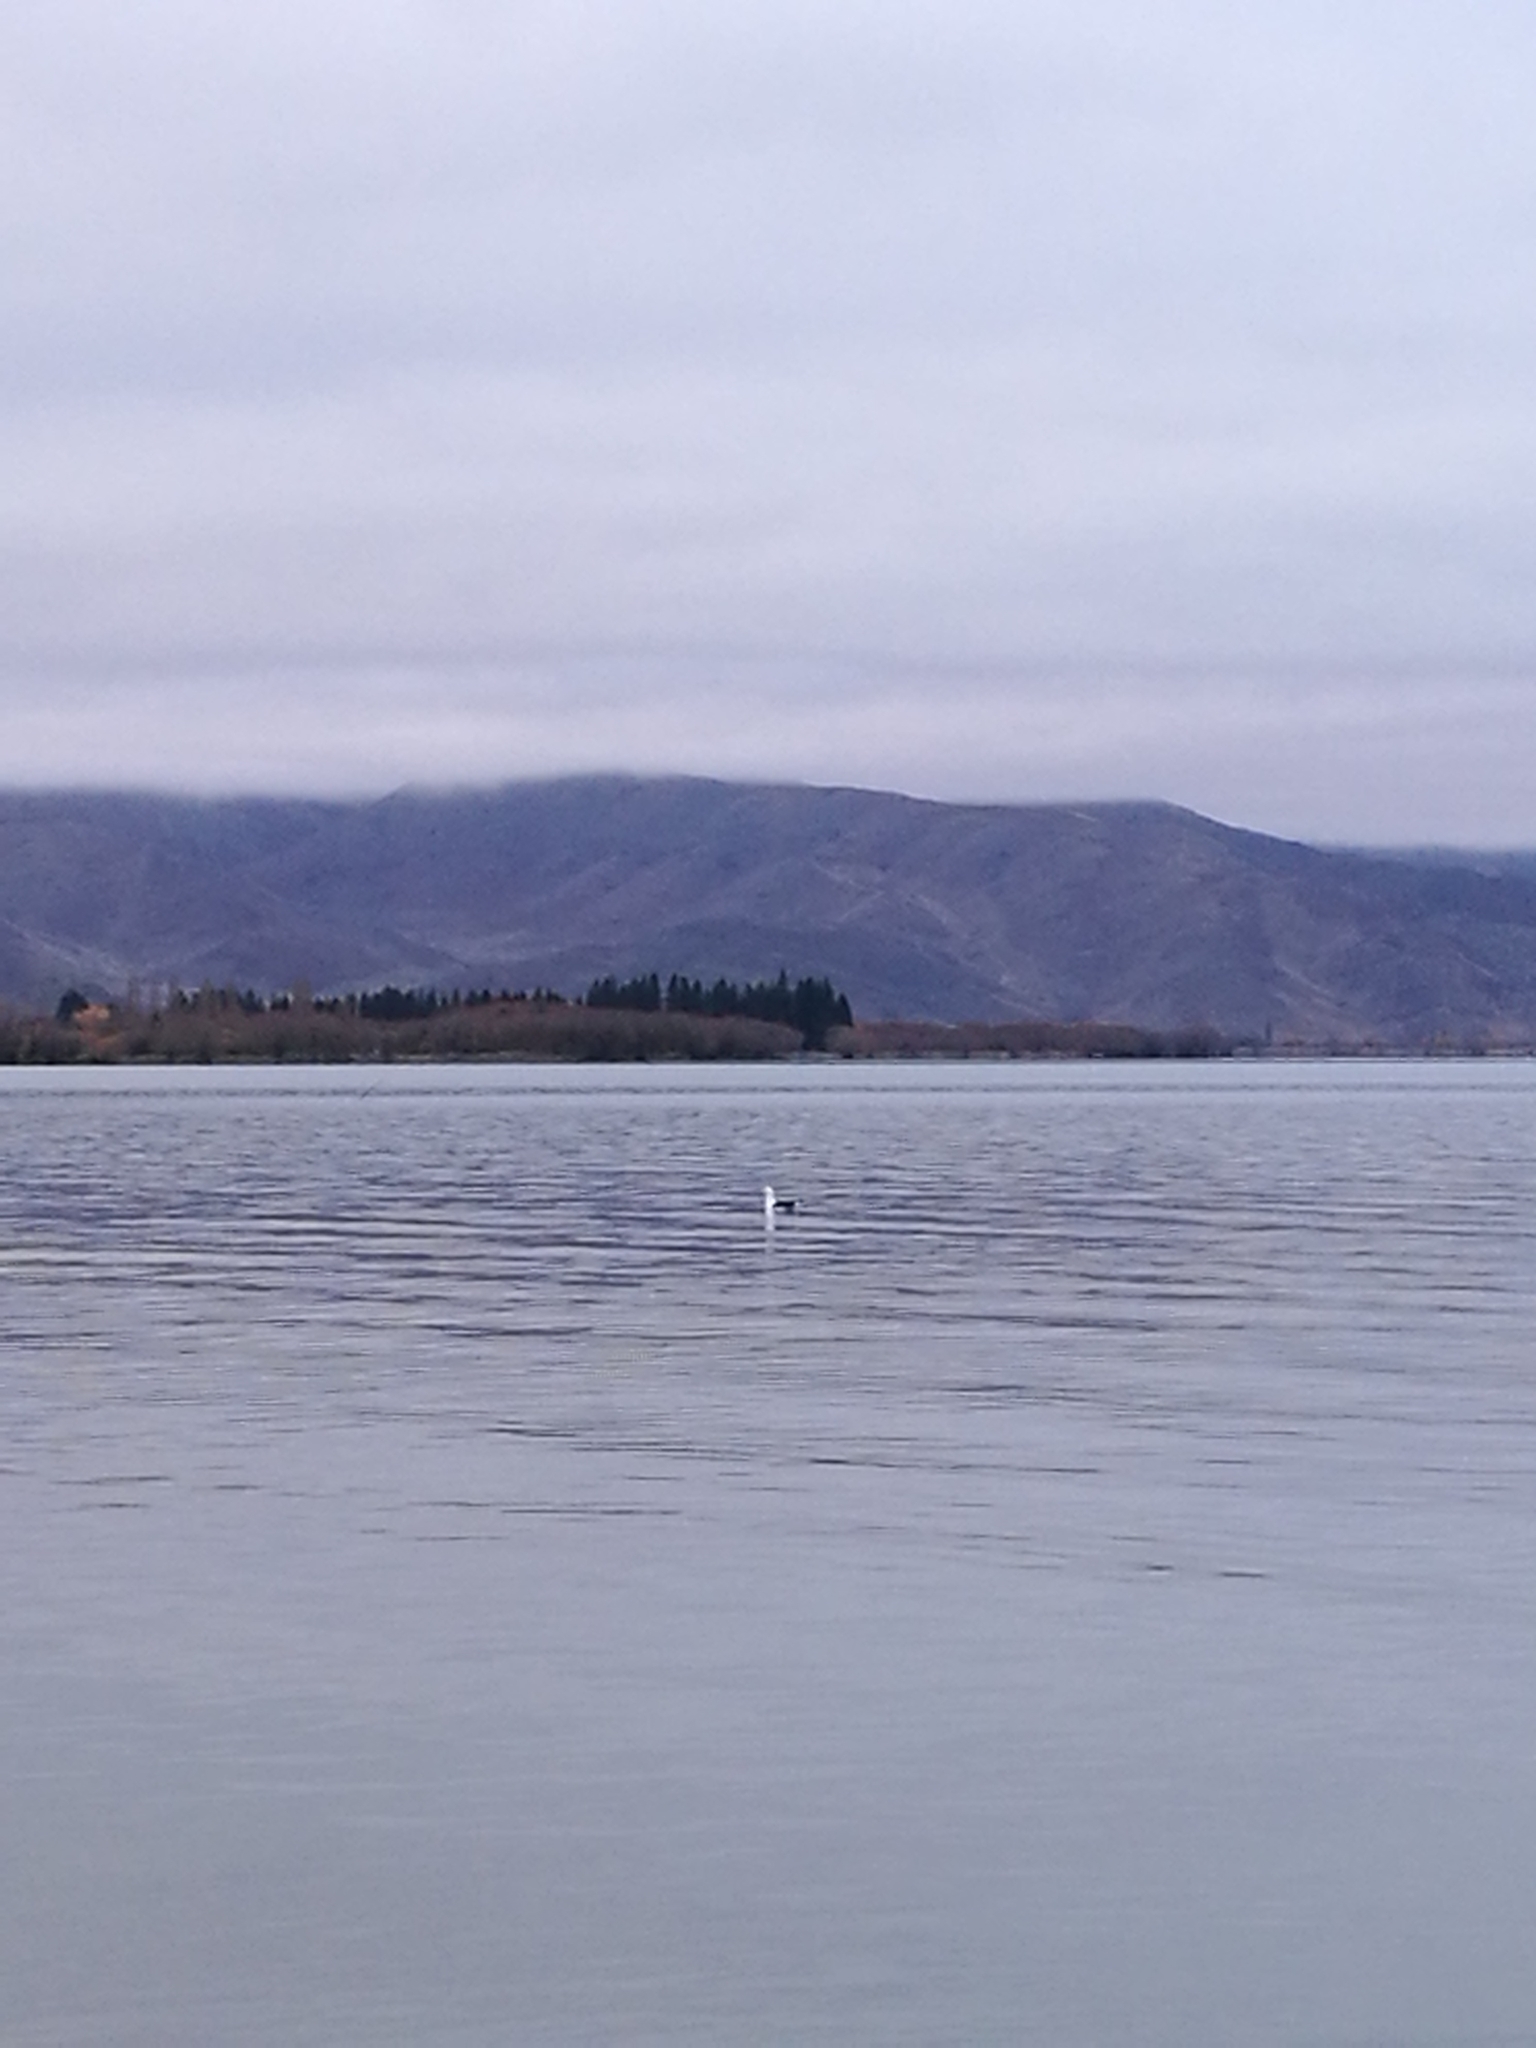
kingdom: Animalia
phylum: Chordata
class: Aves
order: Charadriiformes
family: Laridae
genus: Larus
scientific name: Larus dominicanus
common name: Kelp gull
